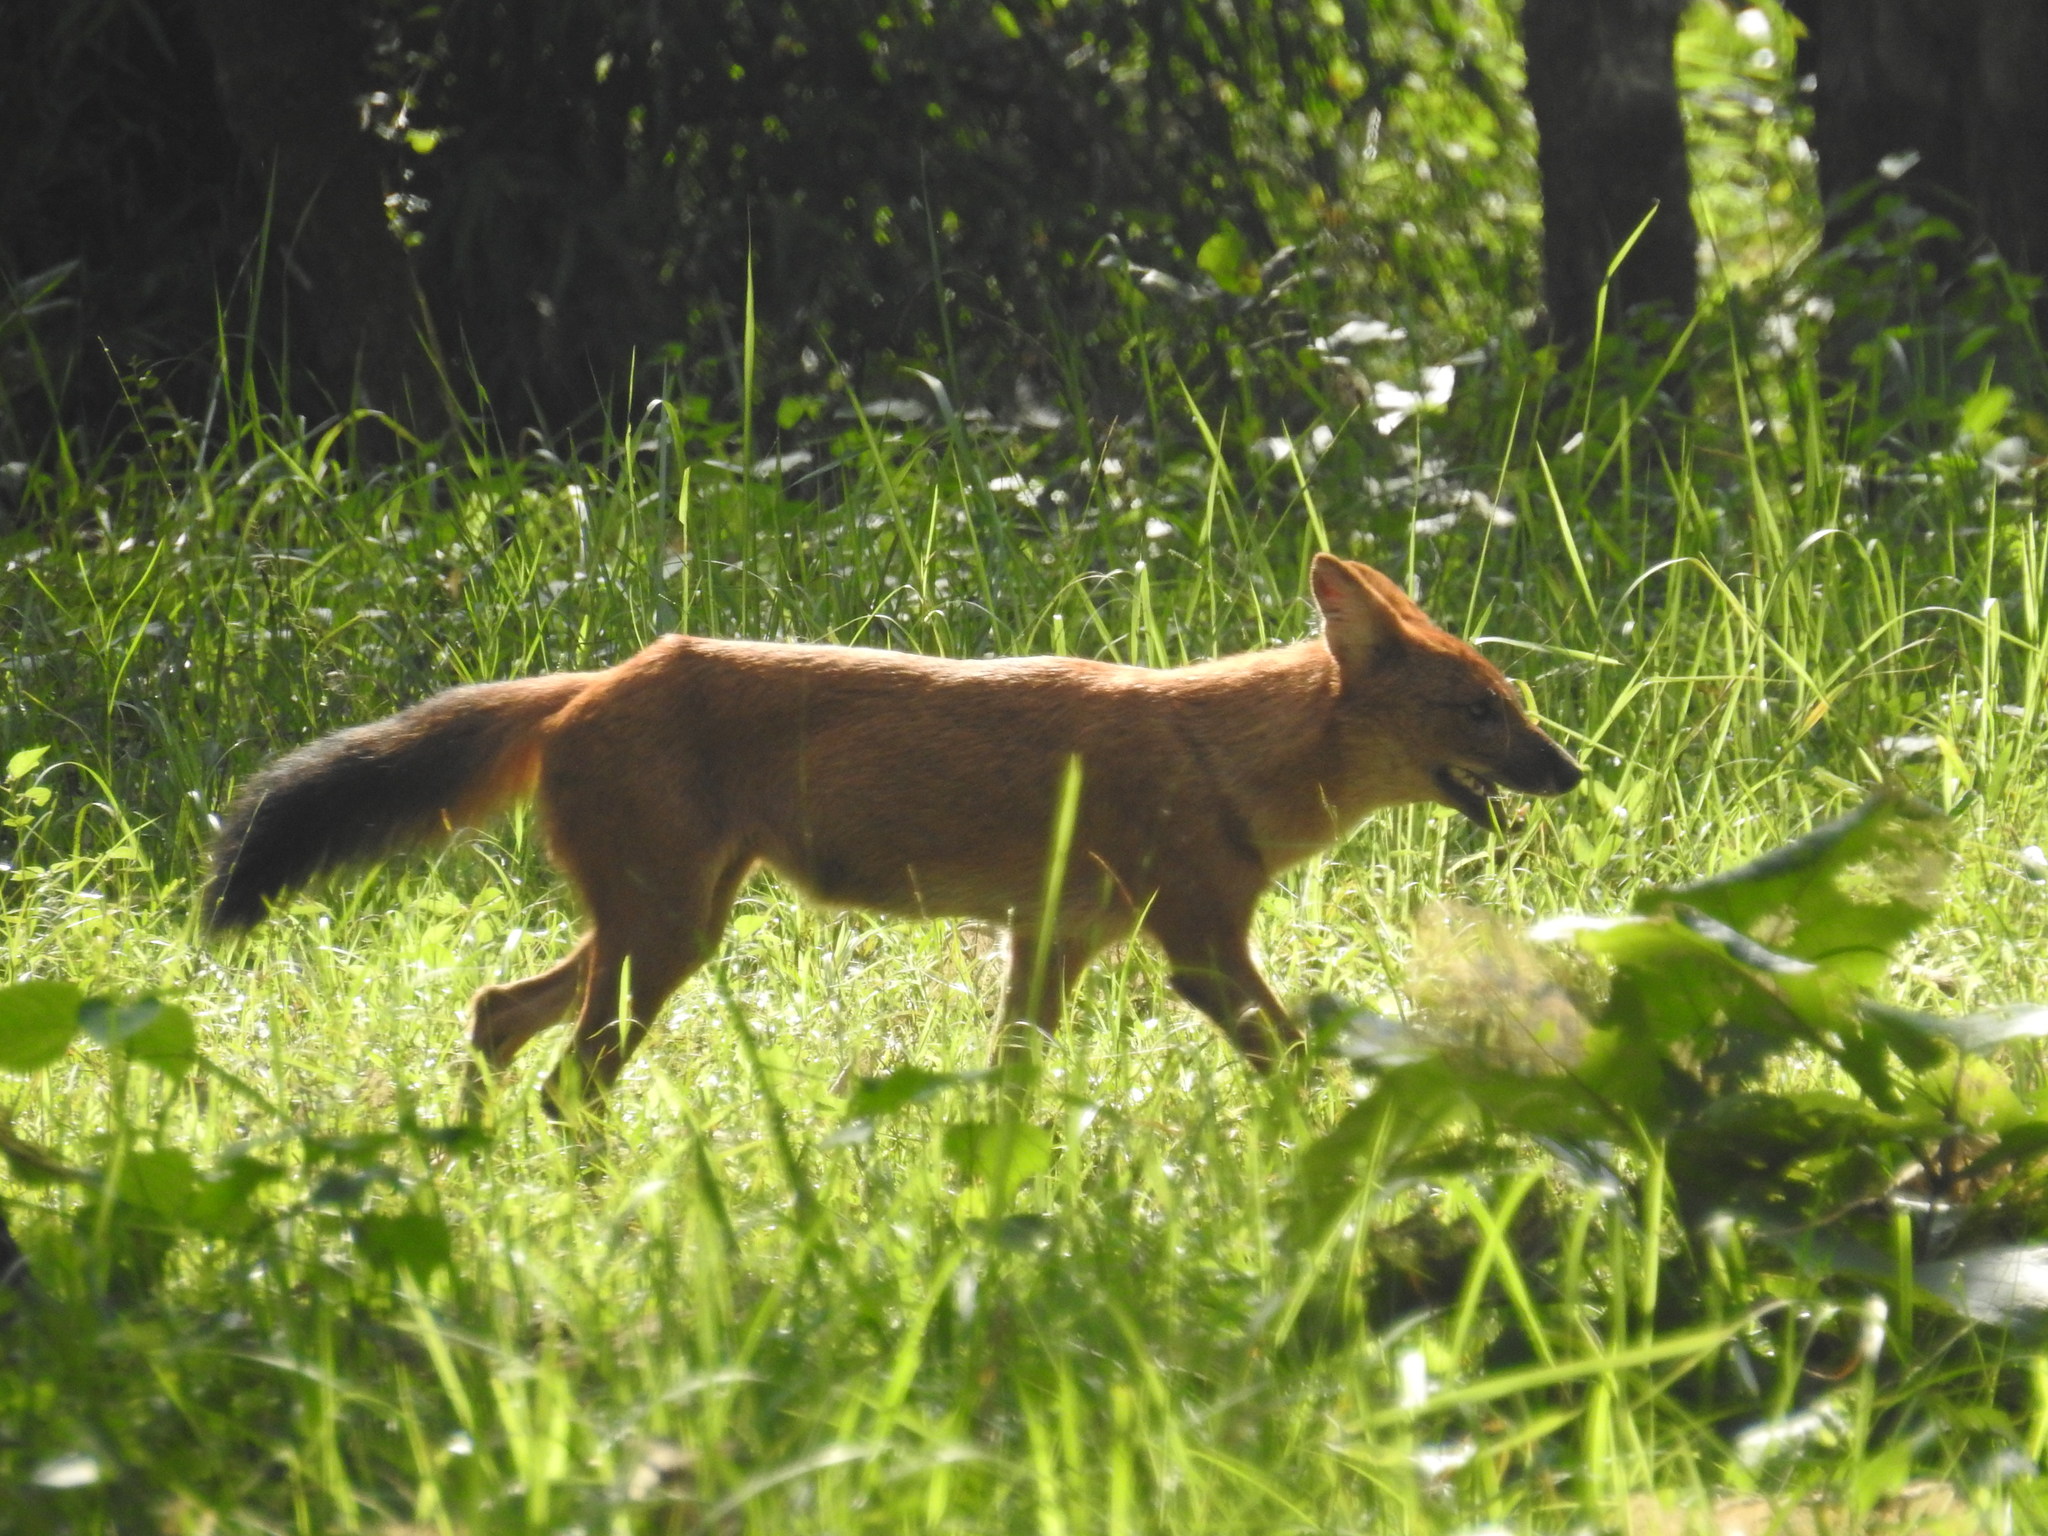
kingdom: Animalia
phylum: Chordata
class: Mammalia
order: Carnivora
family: Canidae
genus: Cuon
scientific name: Cuon alpinus
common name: Dhole
